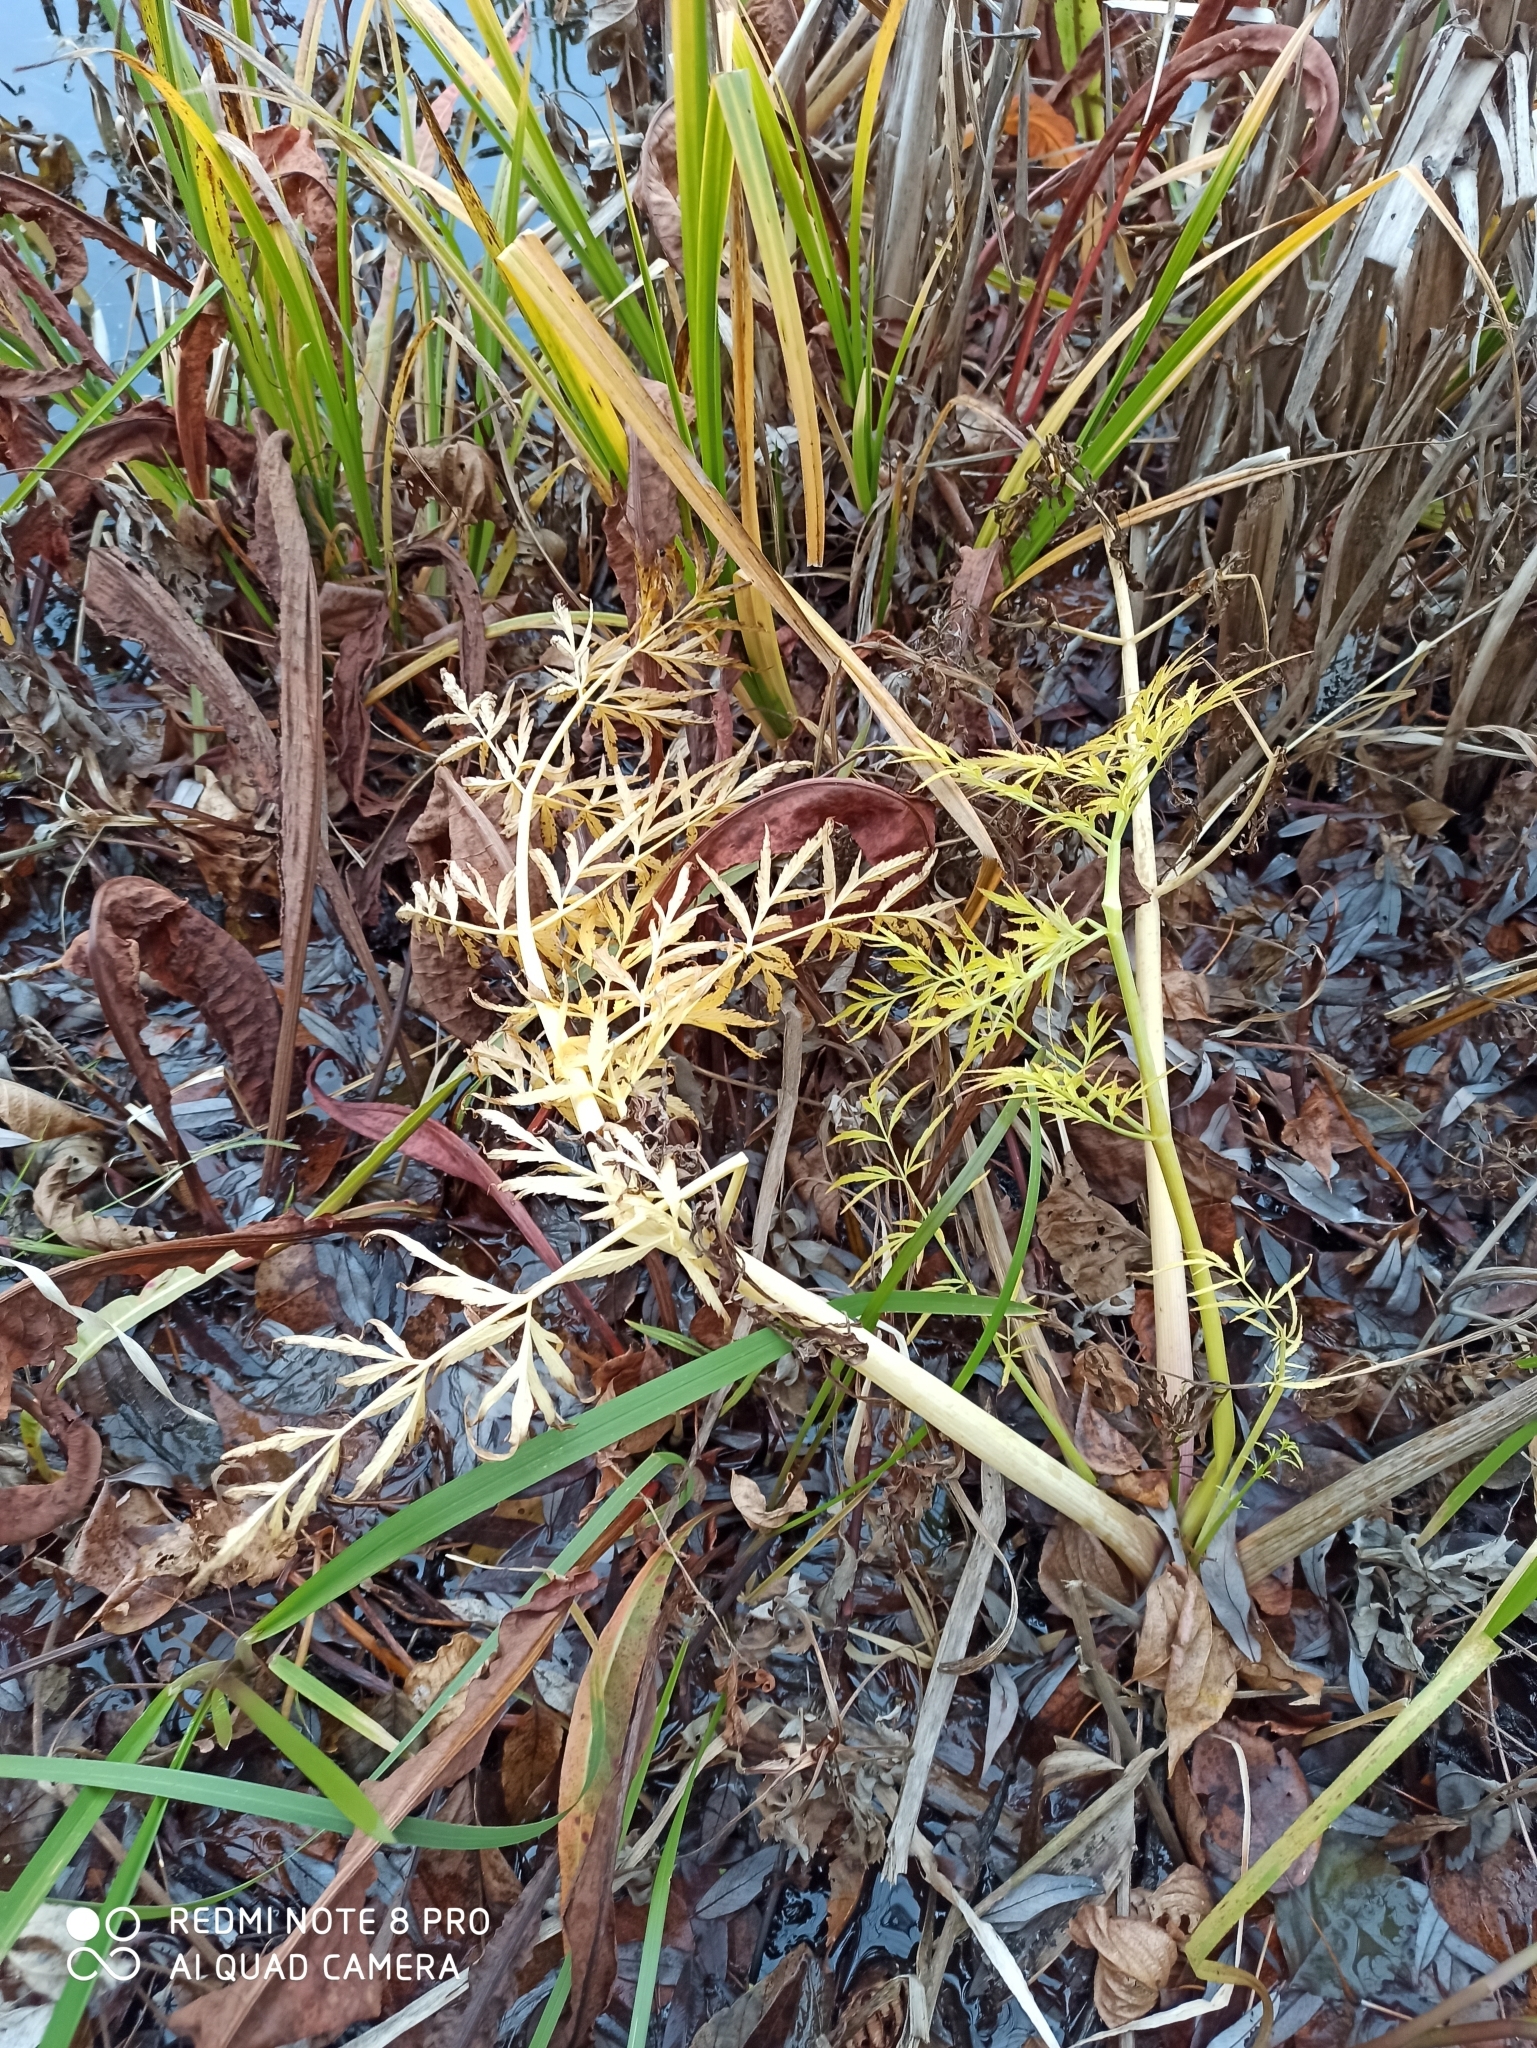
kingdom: Plantae
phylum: Tracheophyta
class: Magnoliopsida
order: Apiales
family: Apiaceae
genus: Cicuta
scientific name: Cicuta virosa
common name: Cowbane
